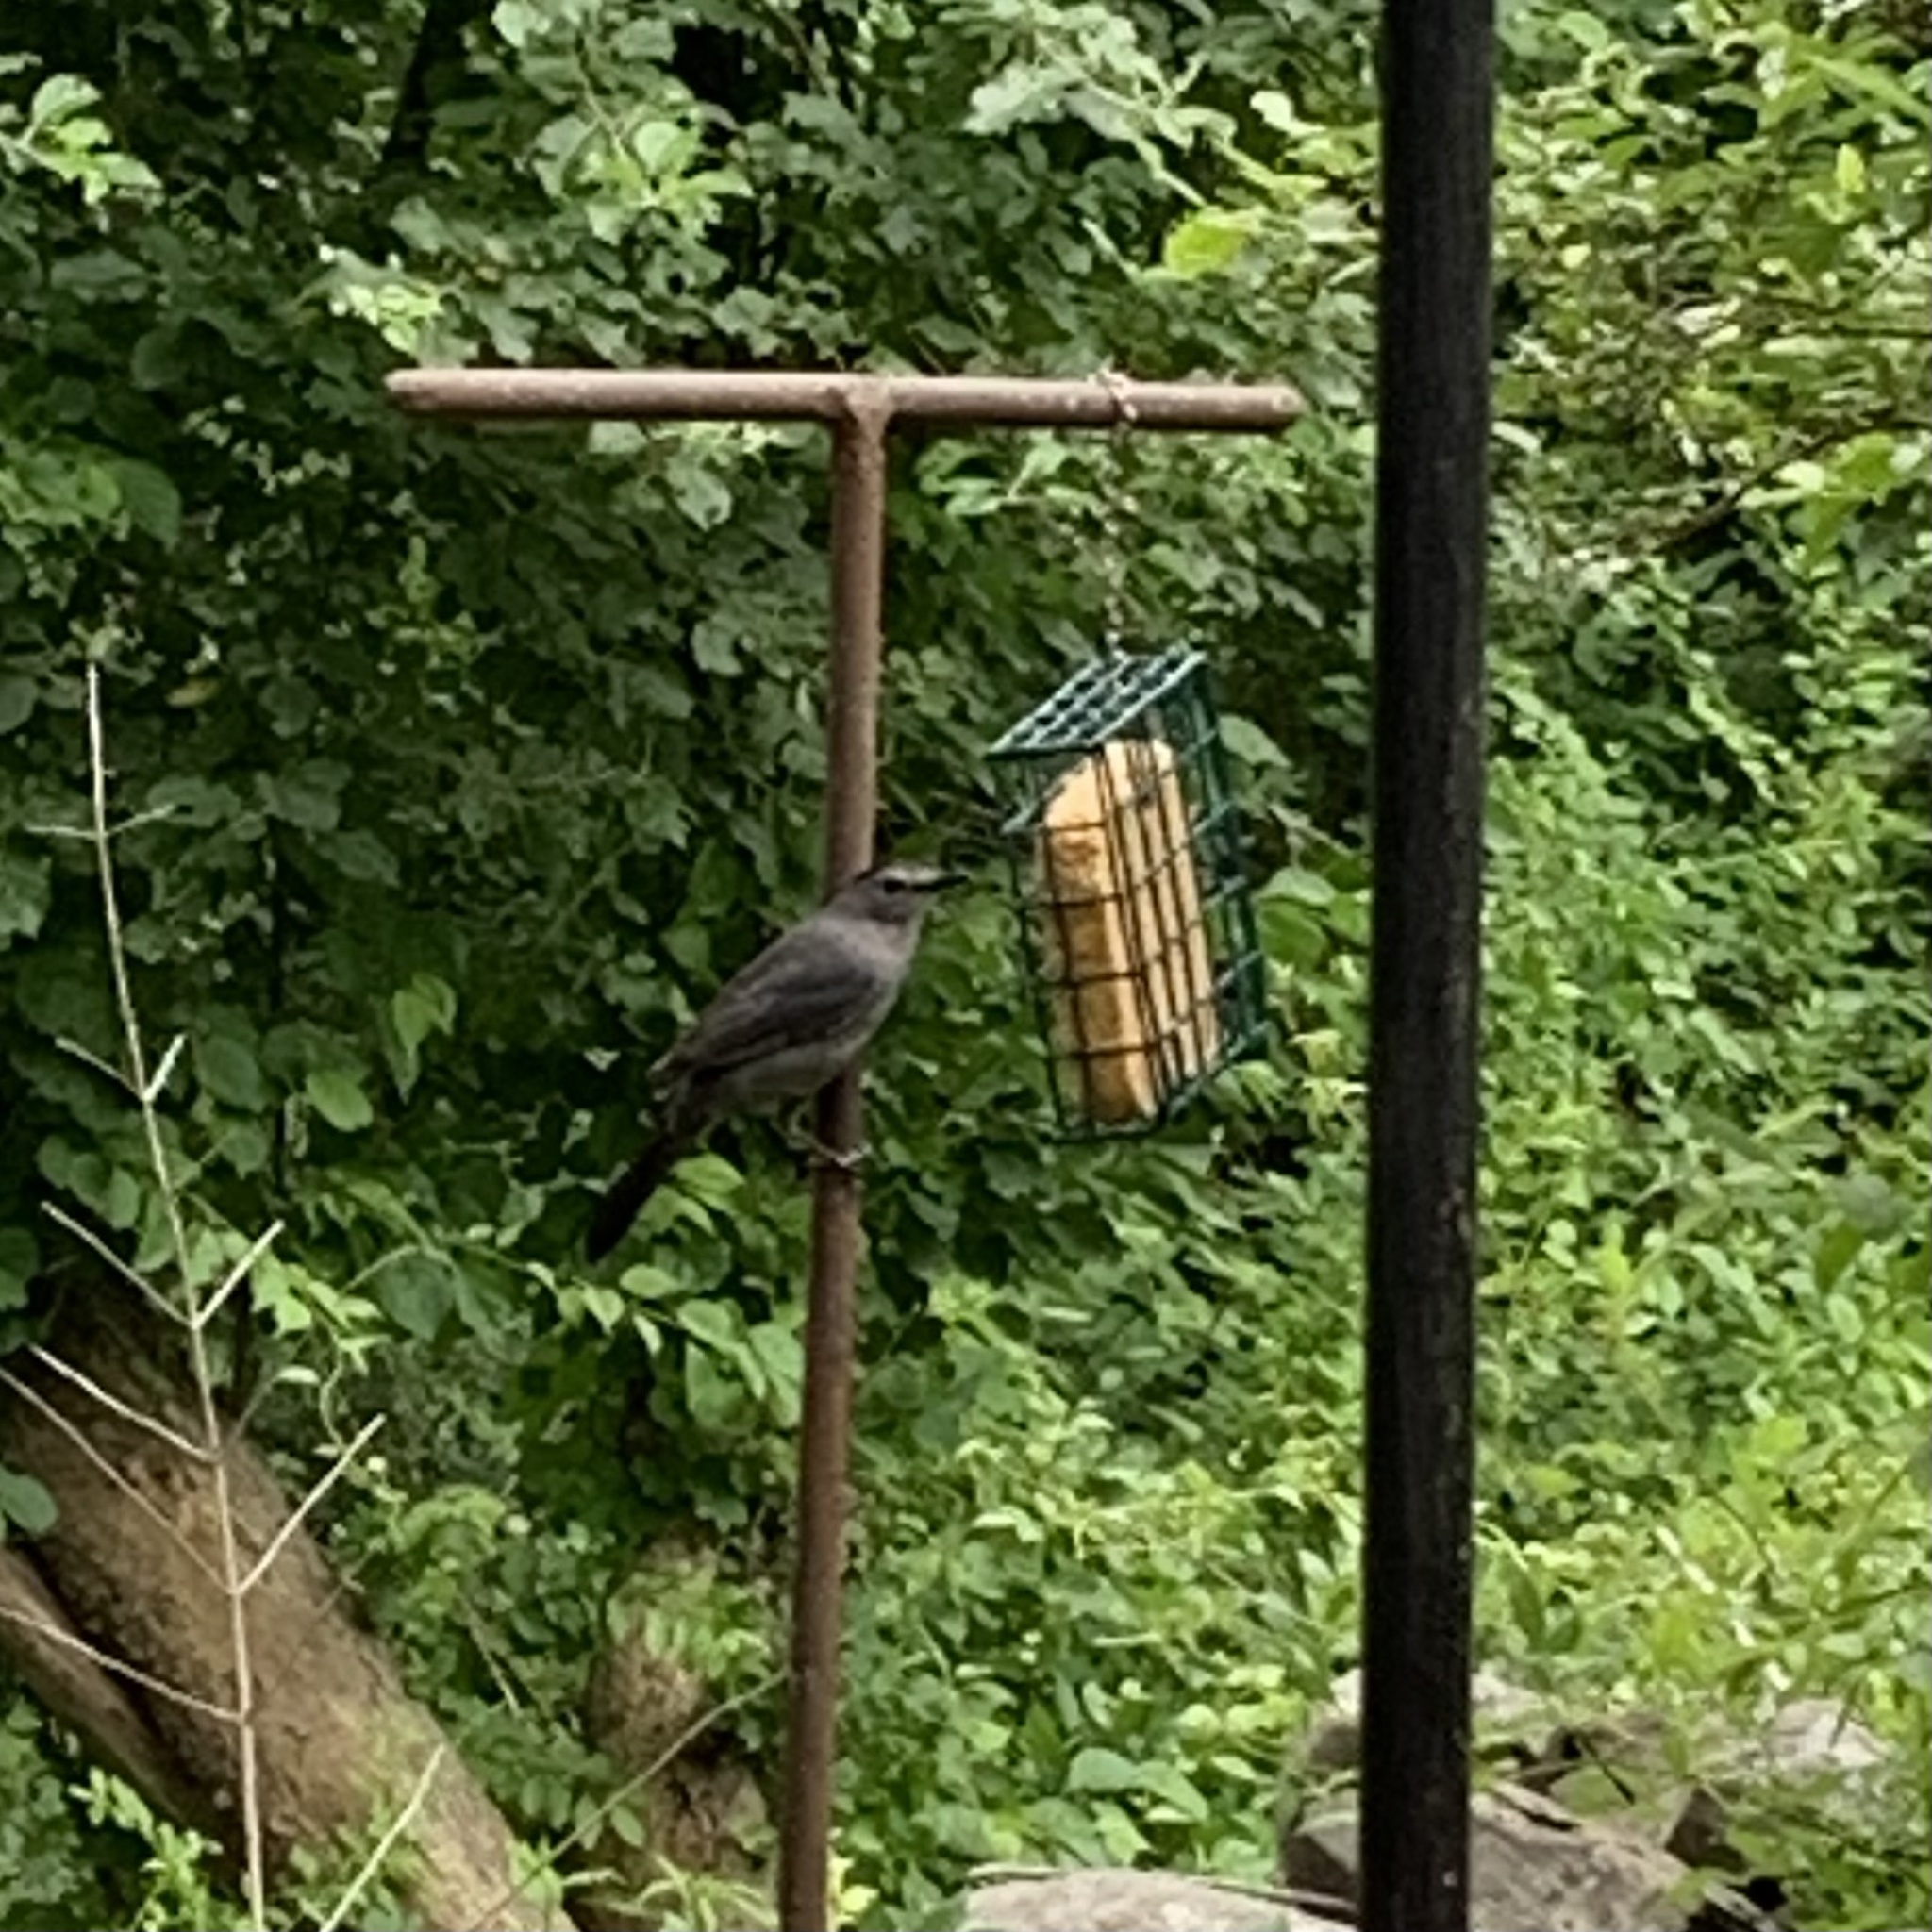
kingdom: Animalia
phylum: Chordata
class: Aves
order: Passeriformes
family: Mimidae
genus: Dumetella
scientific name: Dumetella carolinensis
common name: Gray catbird
